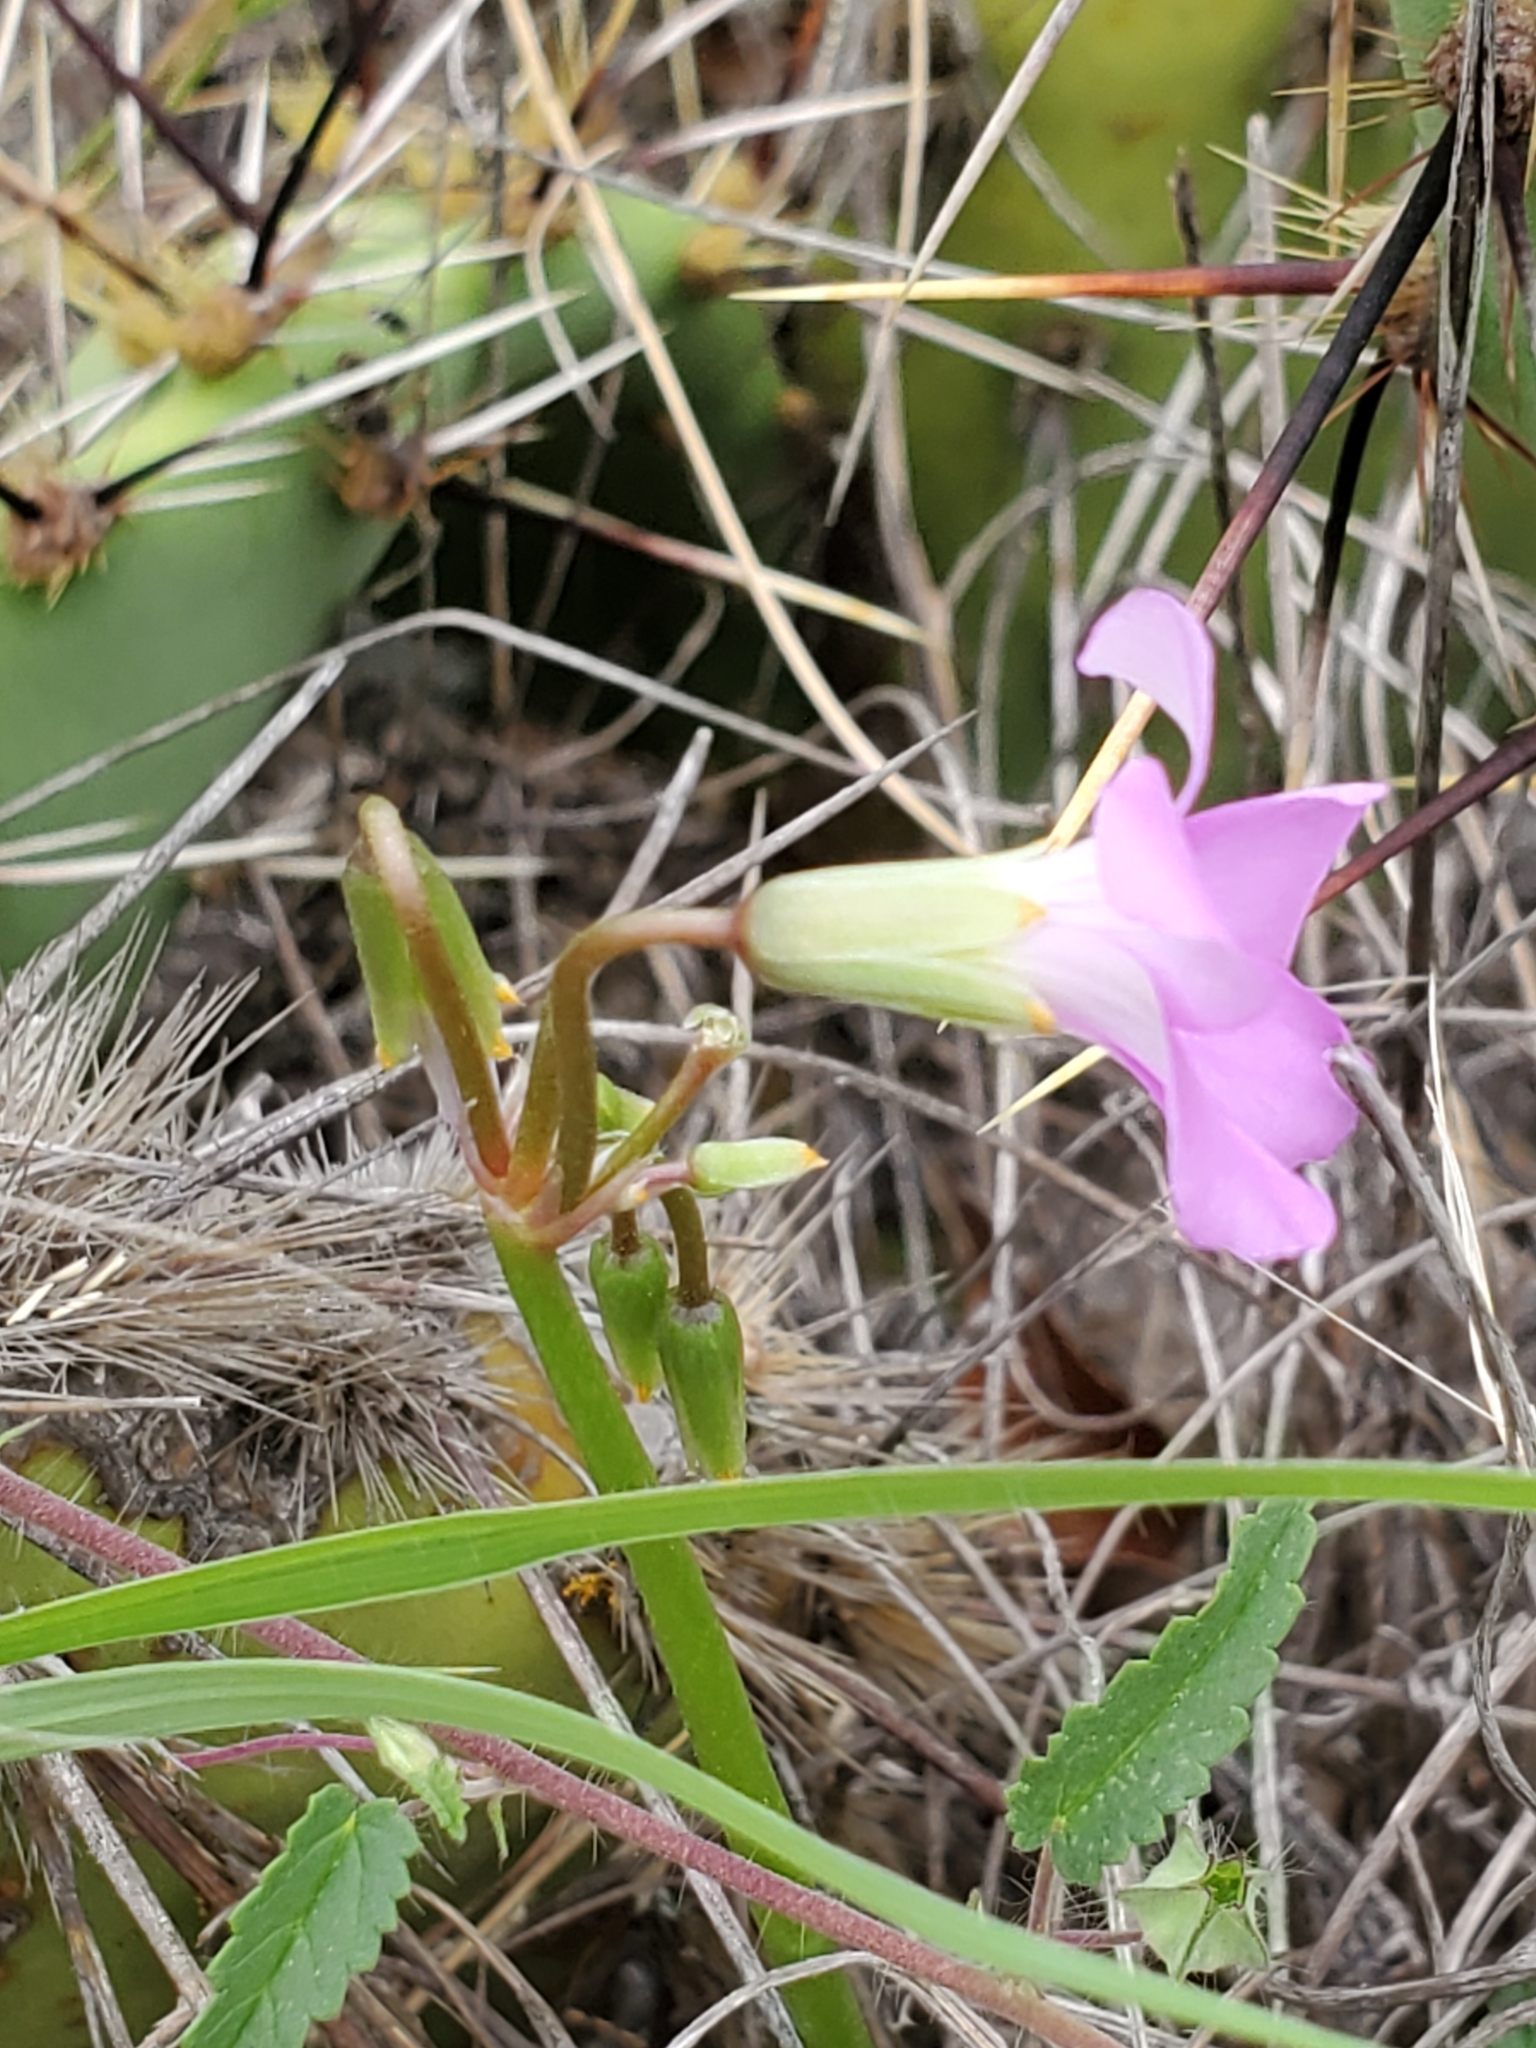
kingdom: Plantae
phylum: Tracheophyta
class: Magnoliopsida
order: Oxalidales
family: Oxalidaceae
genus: Oxalis
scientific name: Oxalis drummondii
